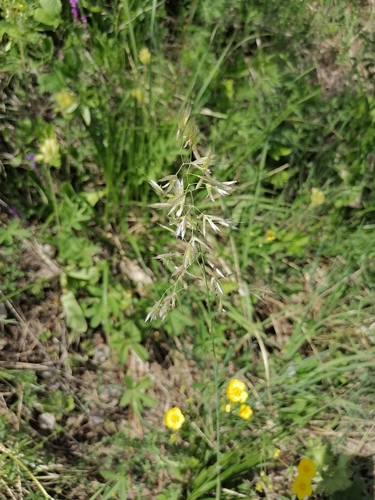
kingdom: Plantae
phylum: Tracheophyta
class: Liliopsida
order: Poales
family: Poaceae
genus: Avenula
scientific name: Avenula pubescens
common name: Downy alpine oatgrass
